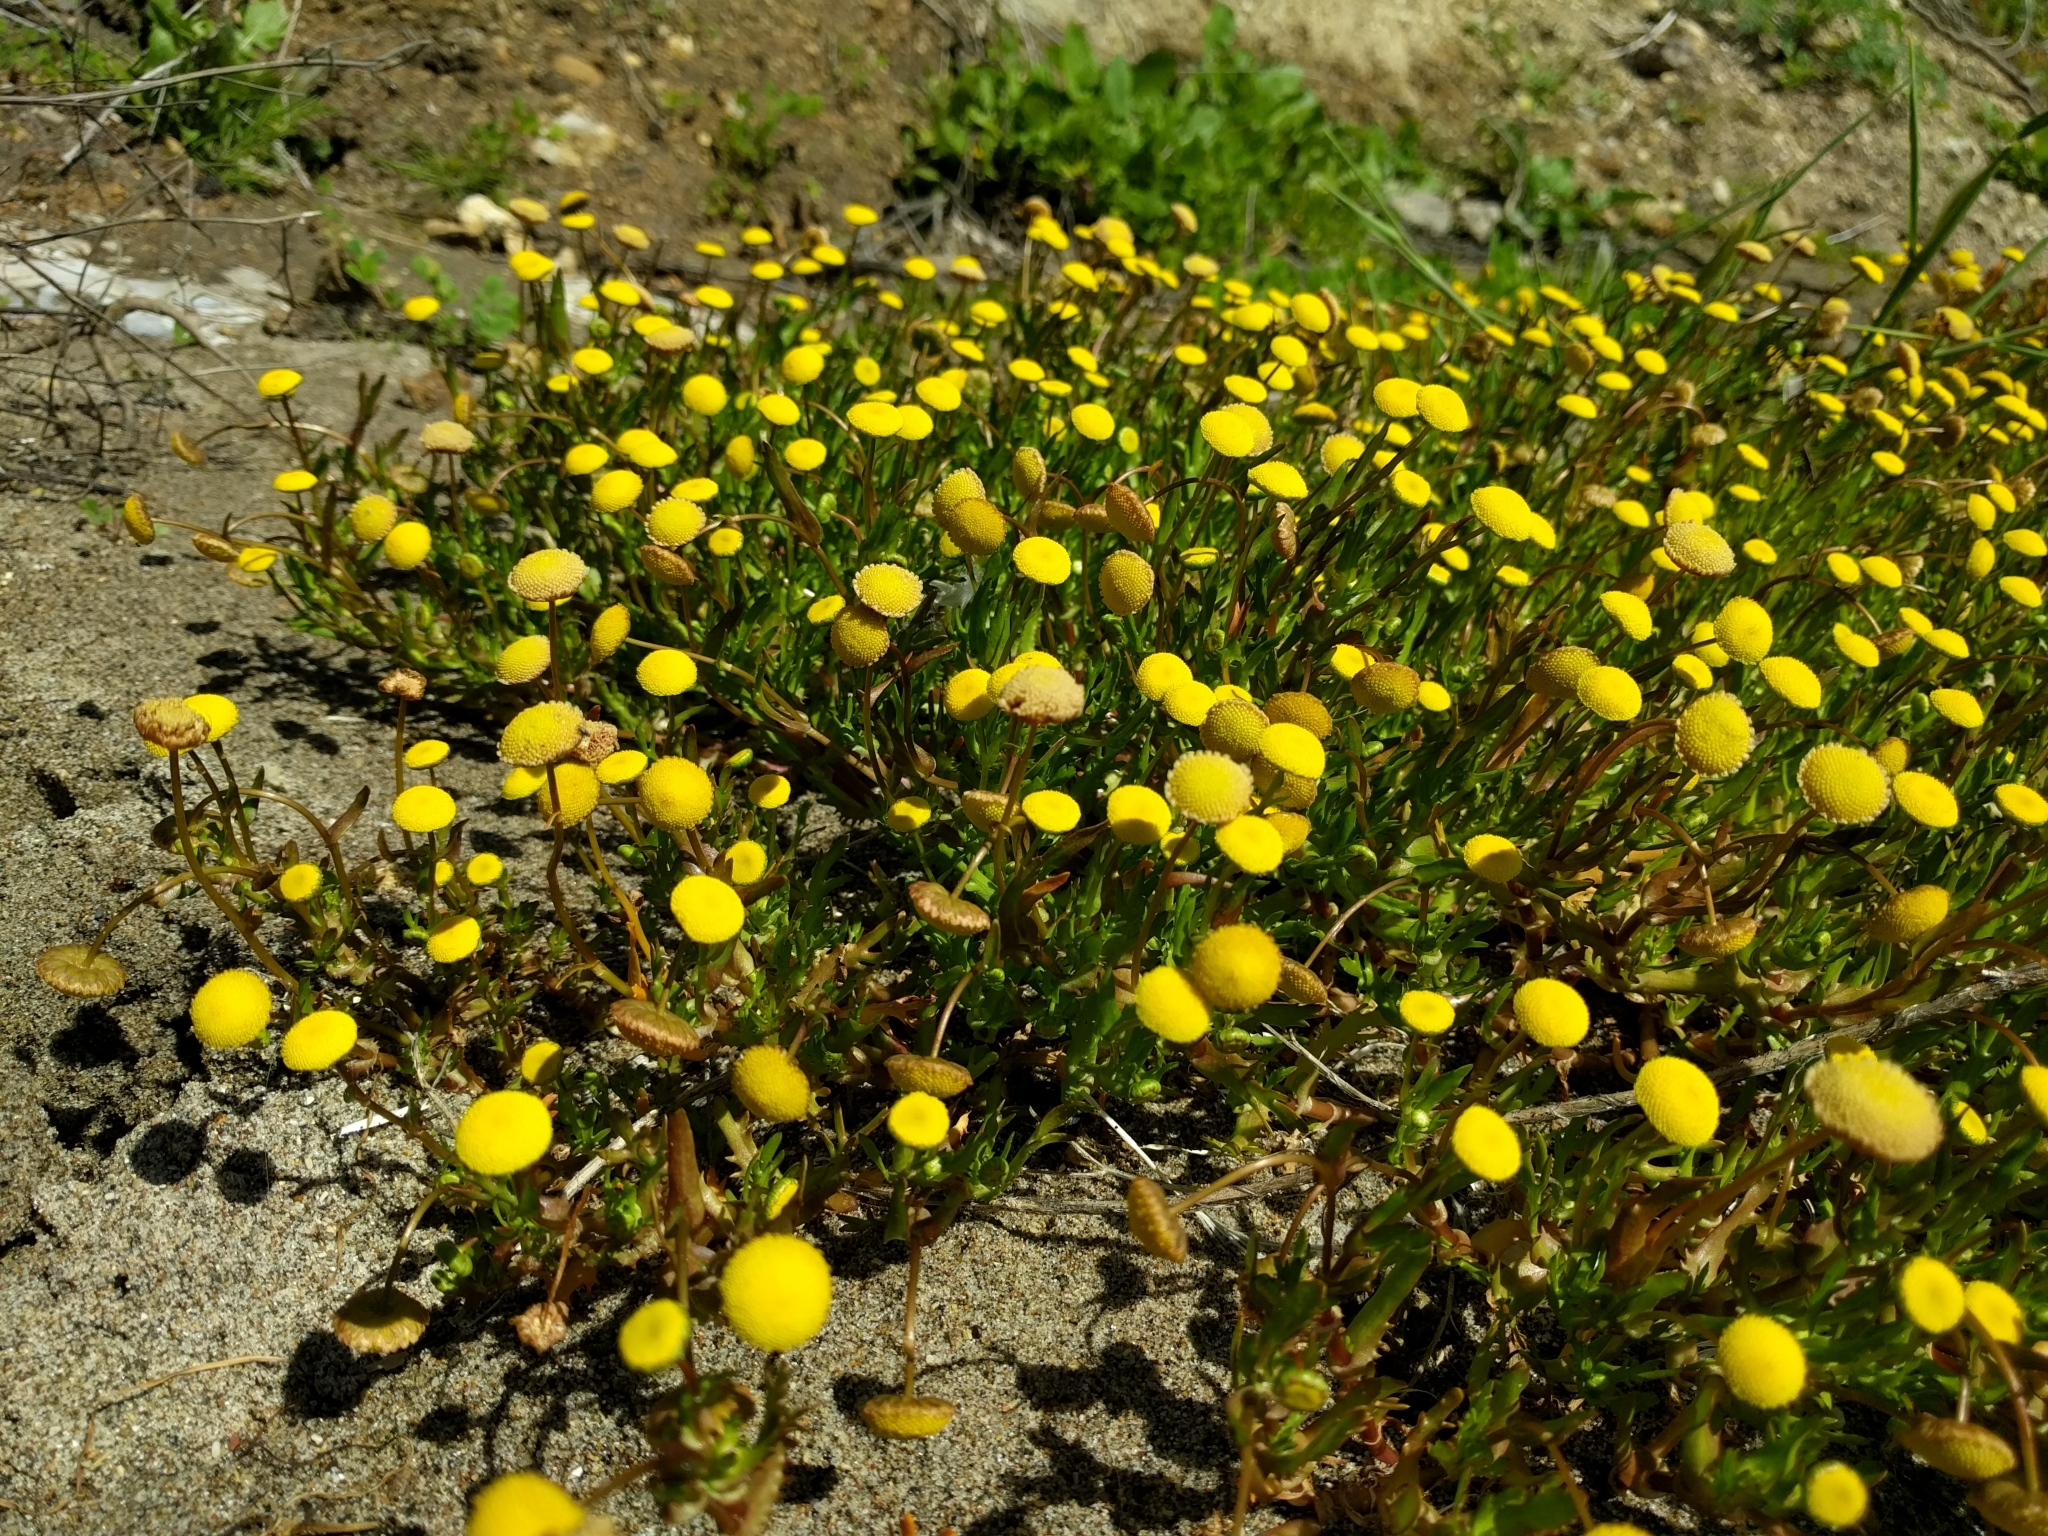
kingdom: Plantae
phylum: Tracheophyta
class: Magnoliopsida
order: Asterales
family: Asteraceae
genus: Cotula
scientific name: Cotula coronopifolia
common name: Buttonweed
